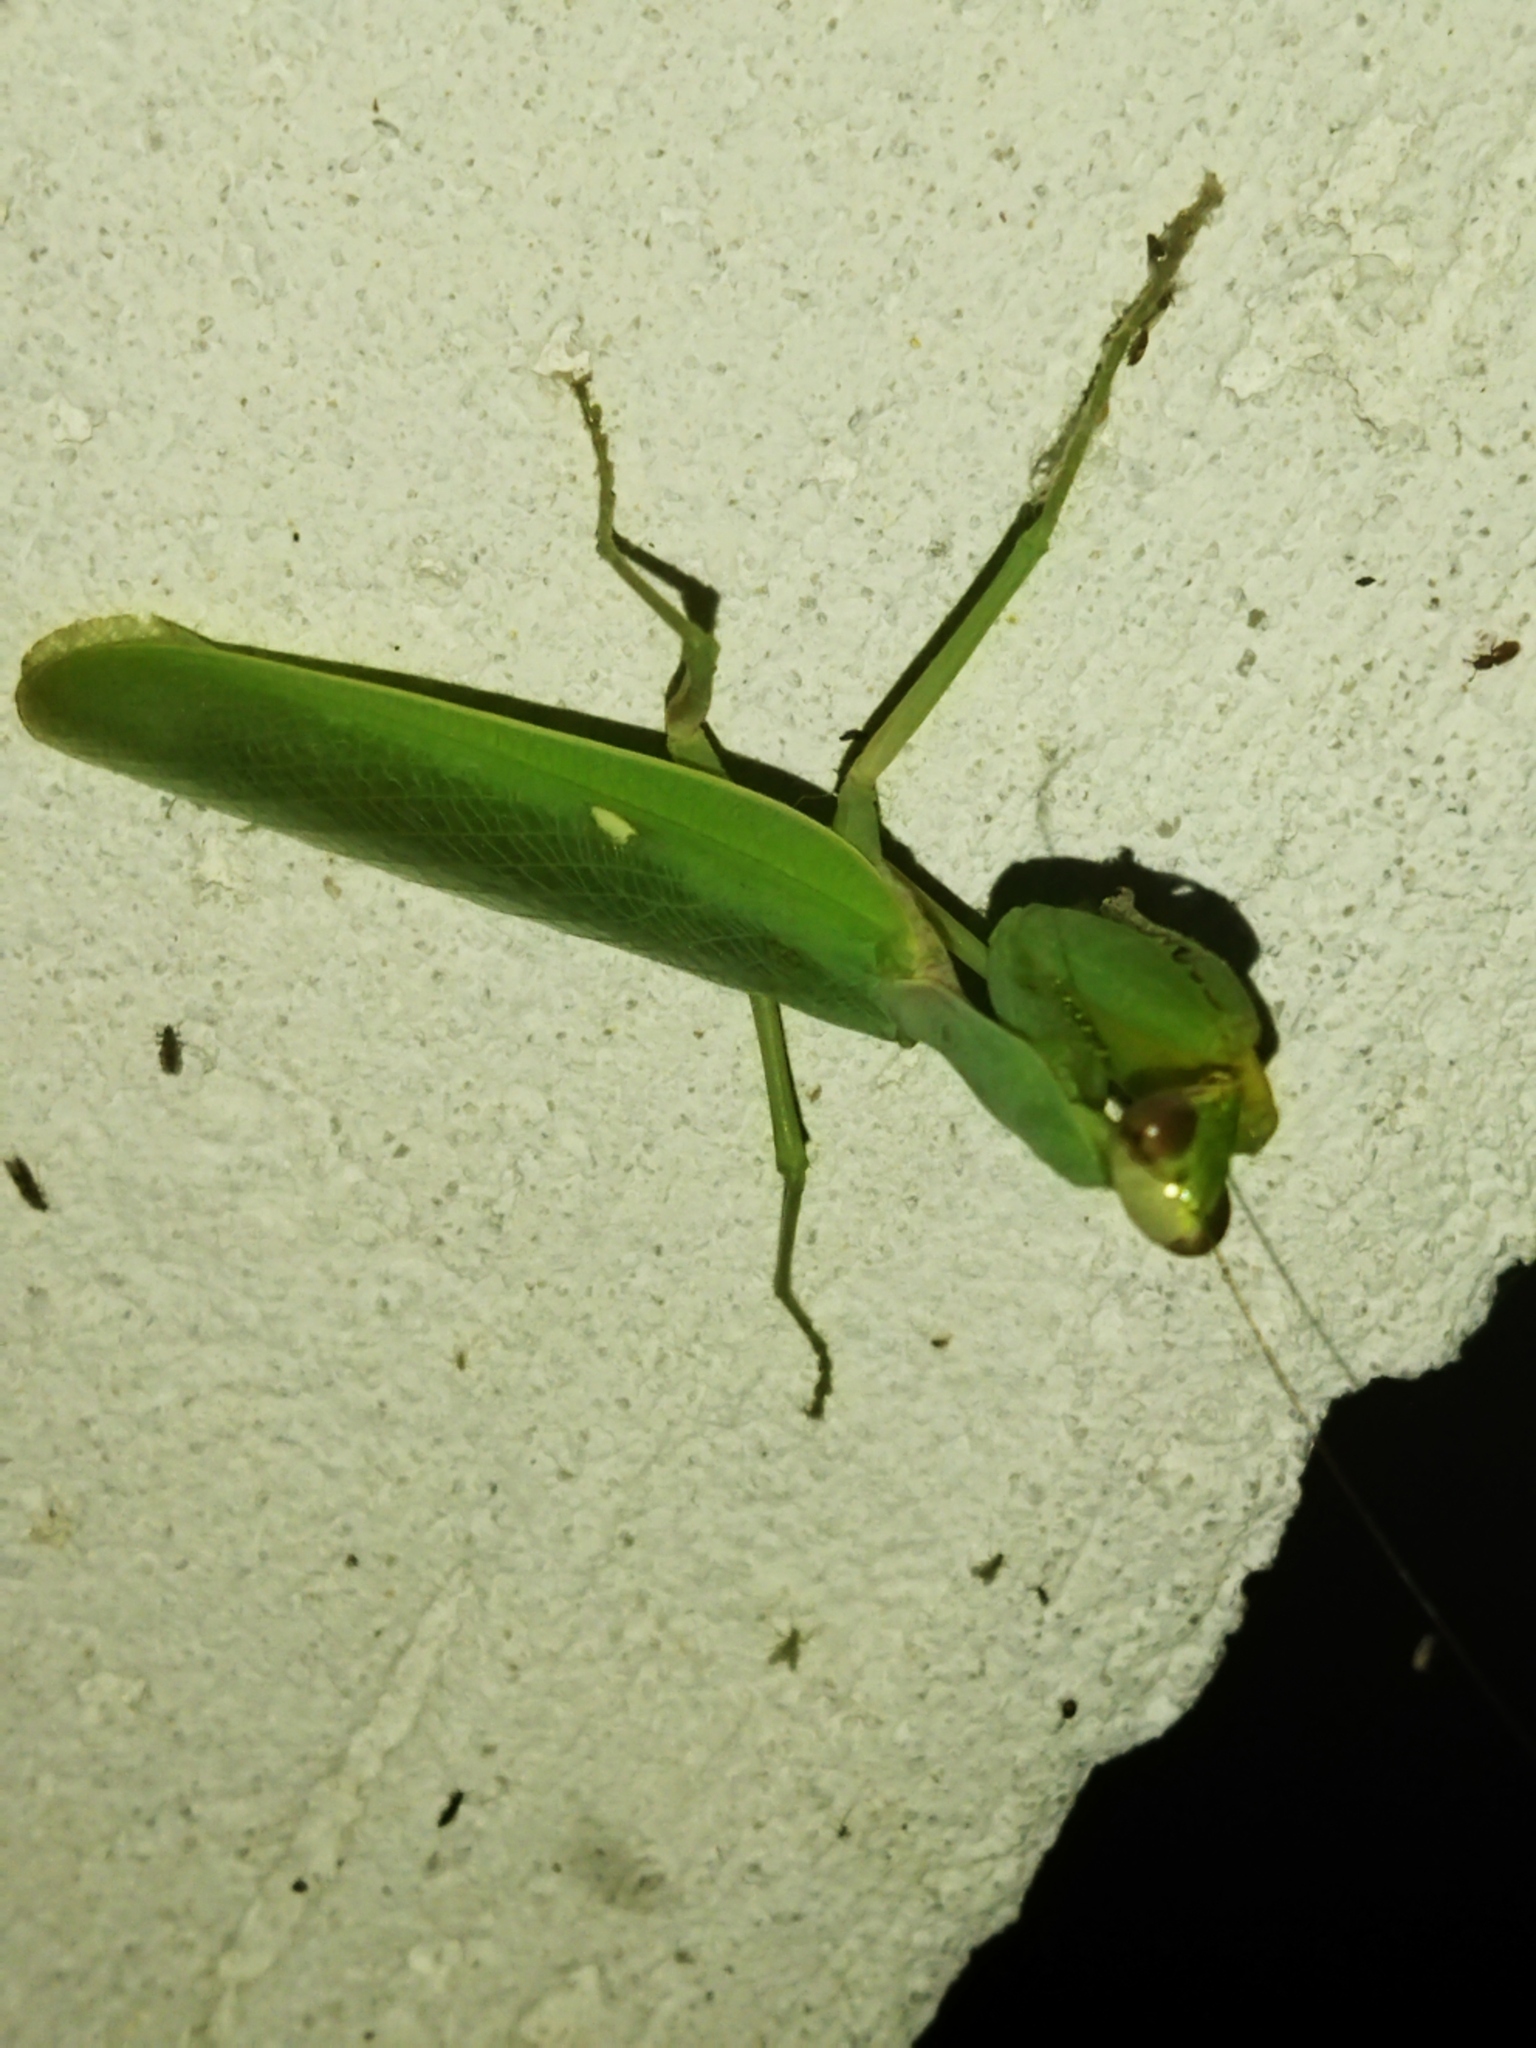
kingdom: Animalia
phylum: Arthropoda
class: Insecta
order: Mantodea
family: Mantidae
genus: Hierodula
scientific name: Hierodula transcaucasica
